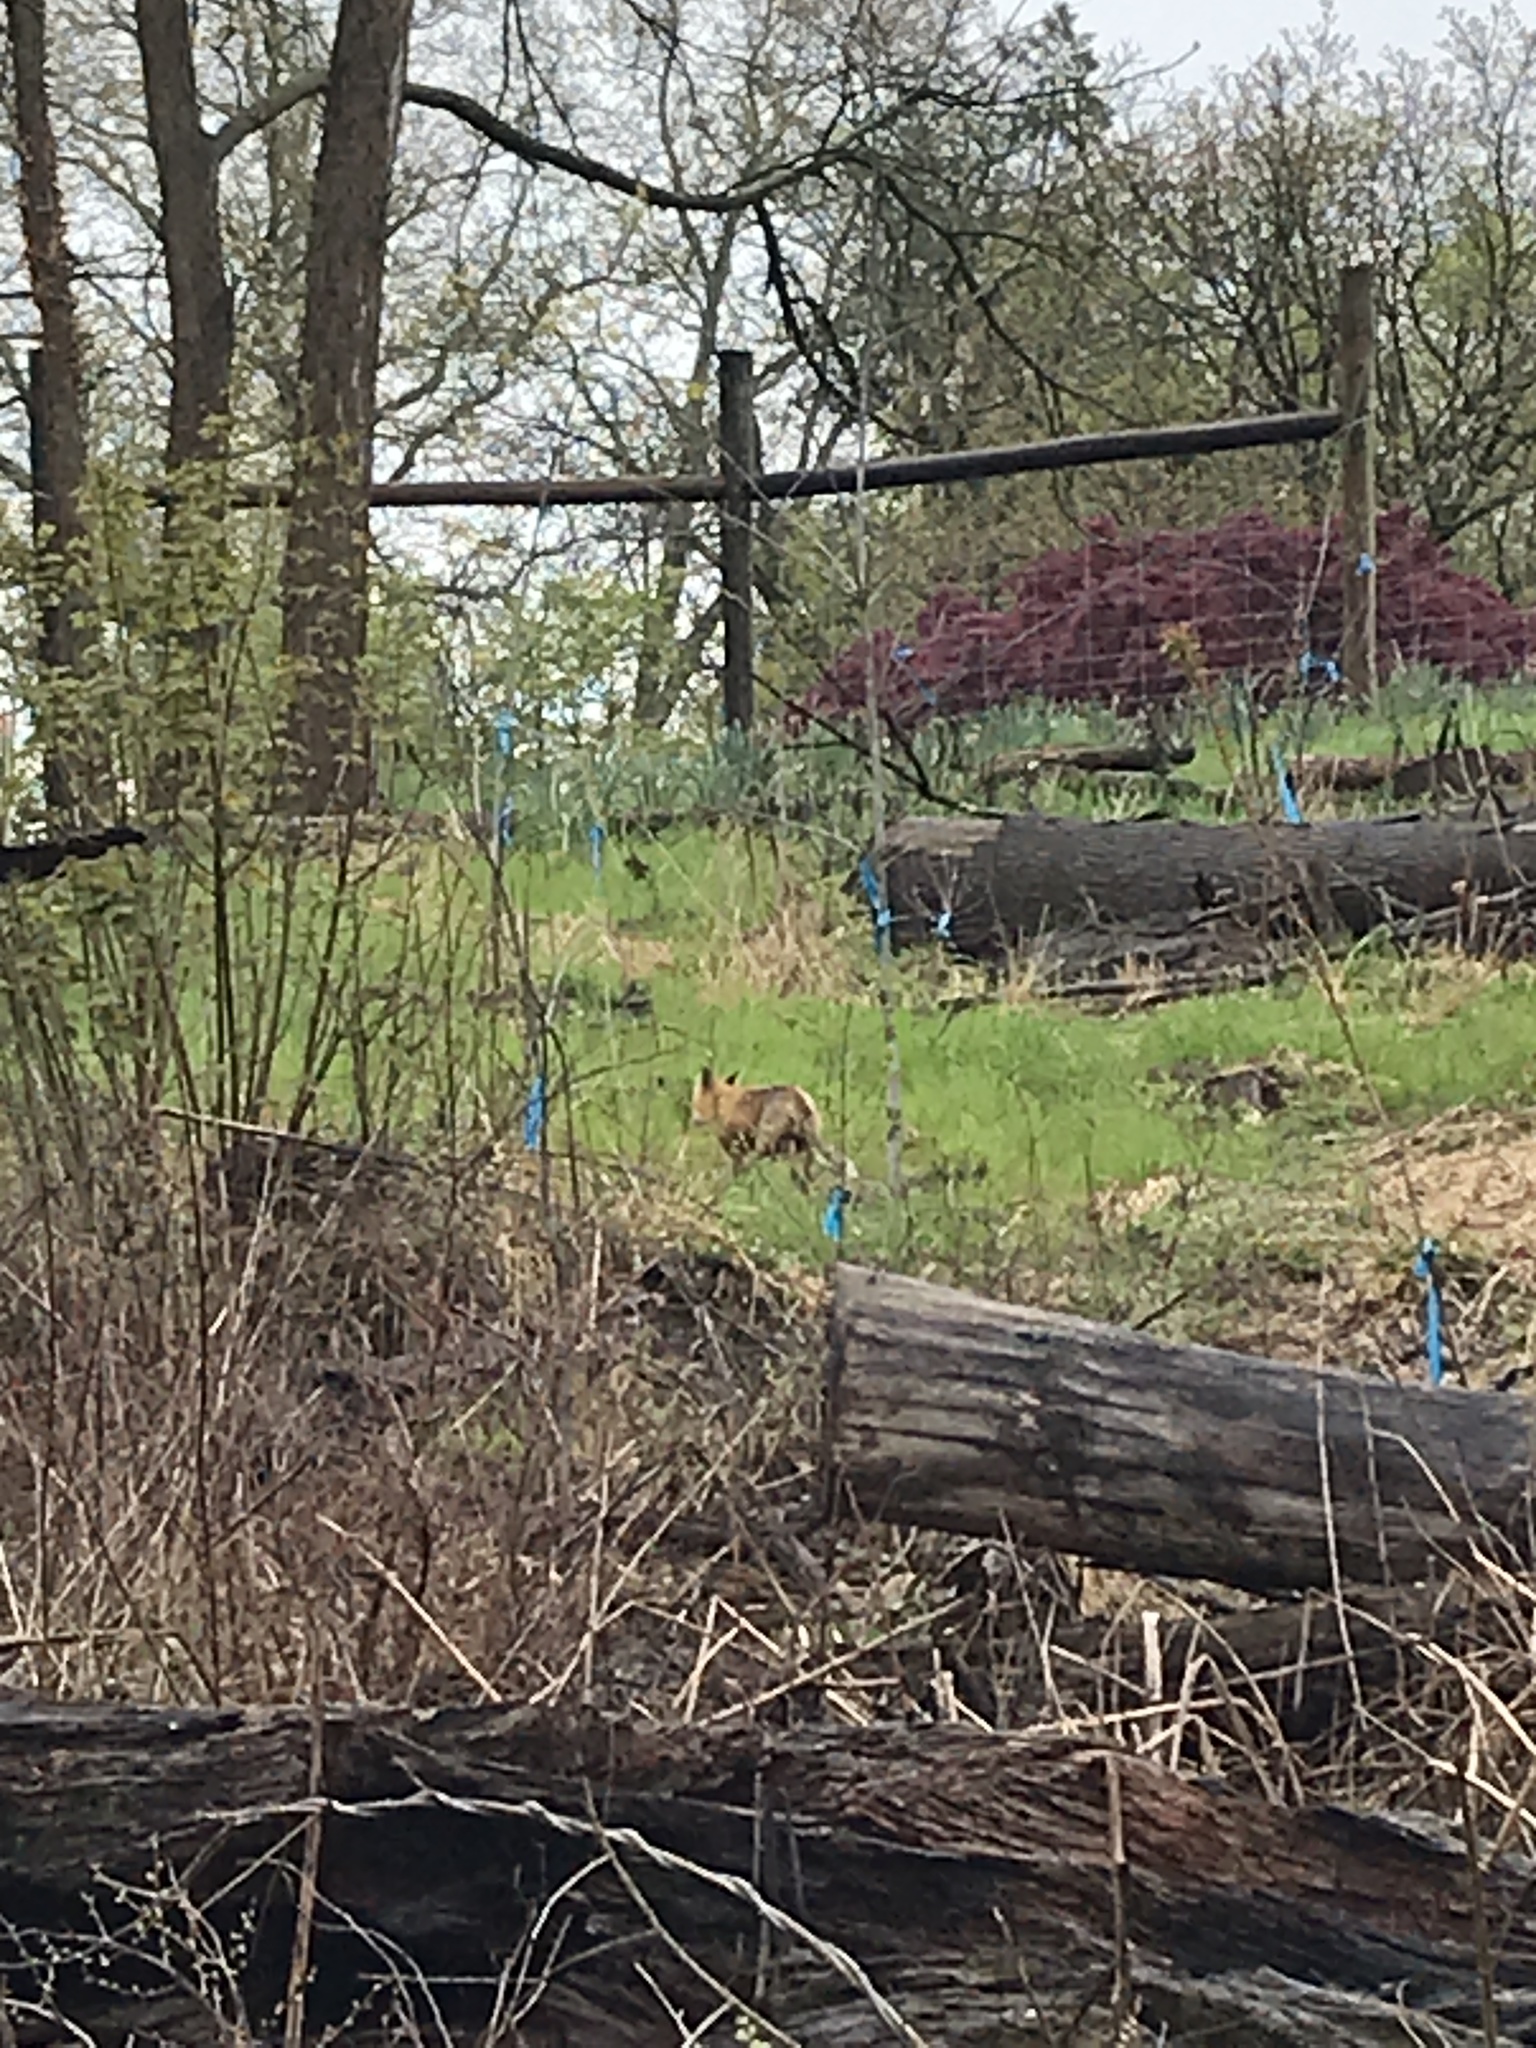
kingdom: Animalia
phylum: Chordata
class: Mammalia
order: Carnivora
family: Canidae
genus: Vulpes
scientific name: Vulpes vulpes
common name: Red fox
